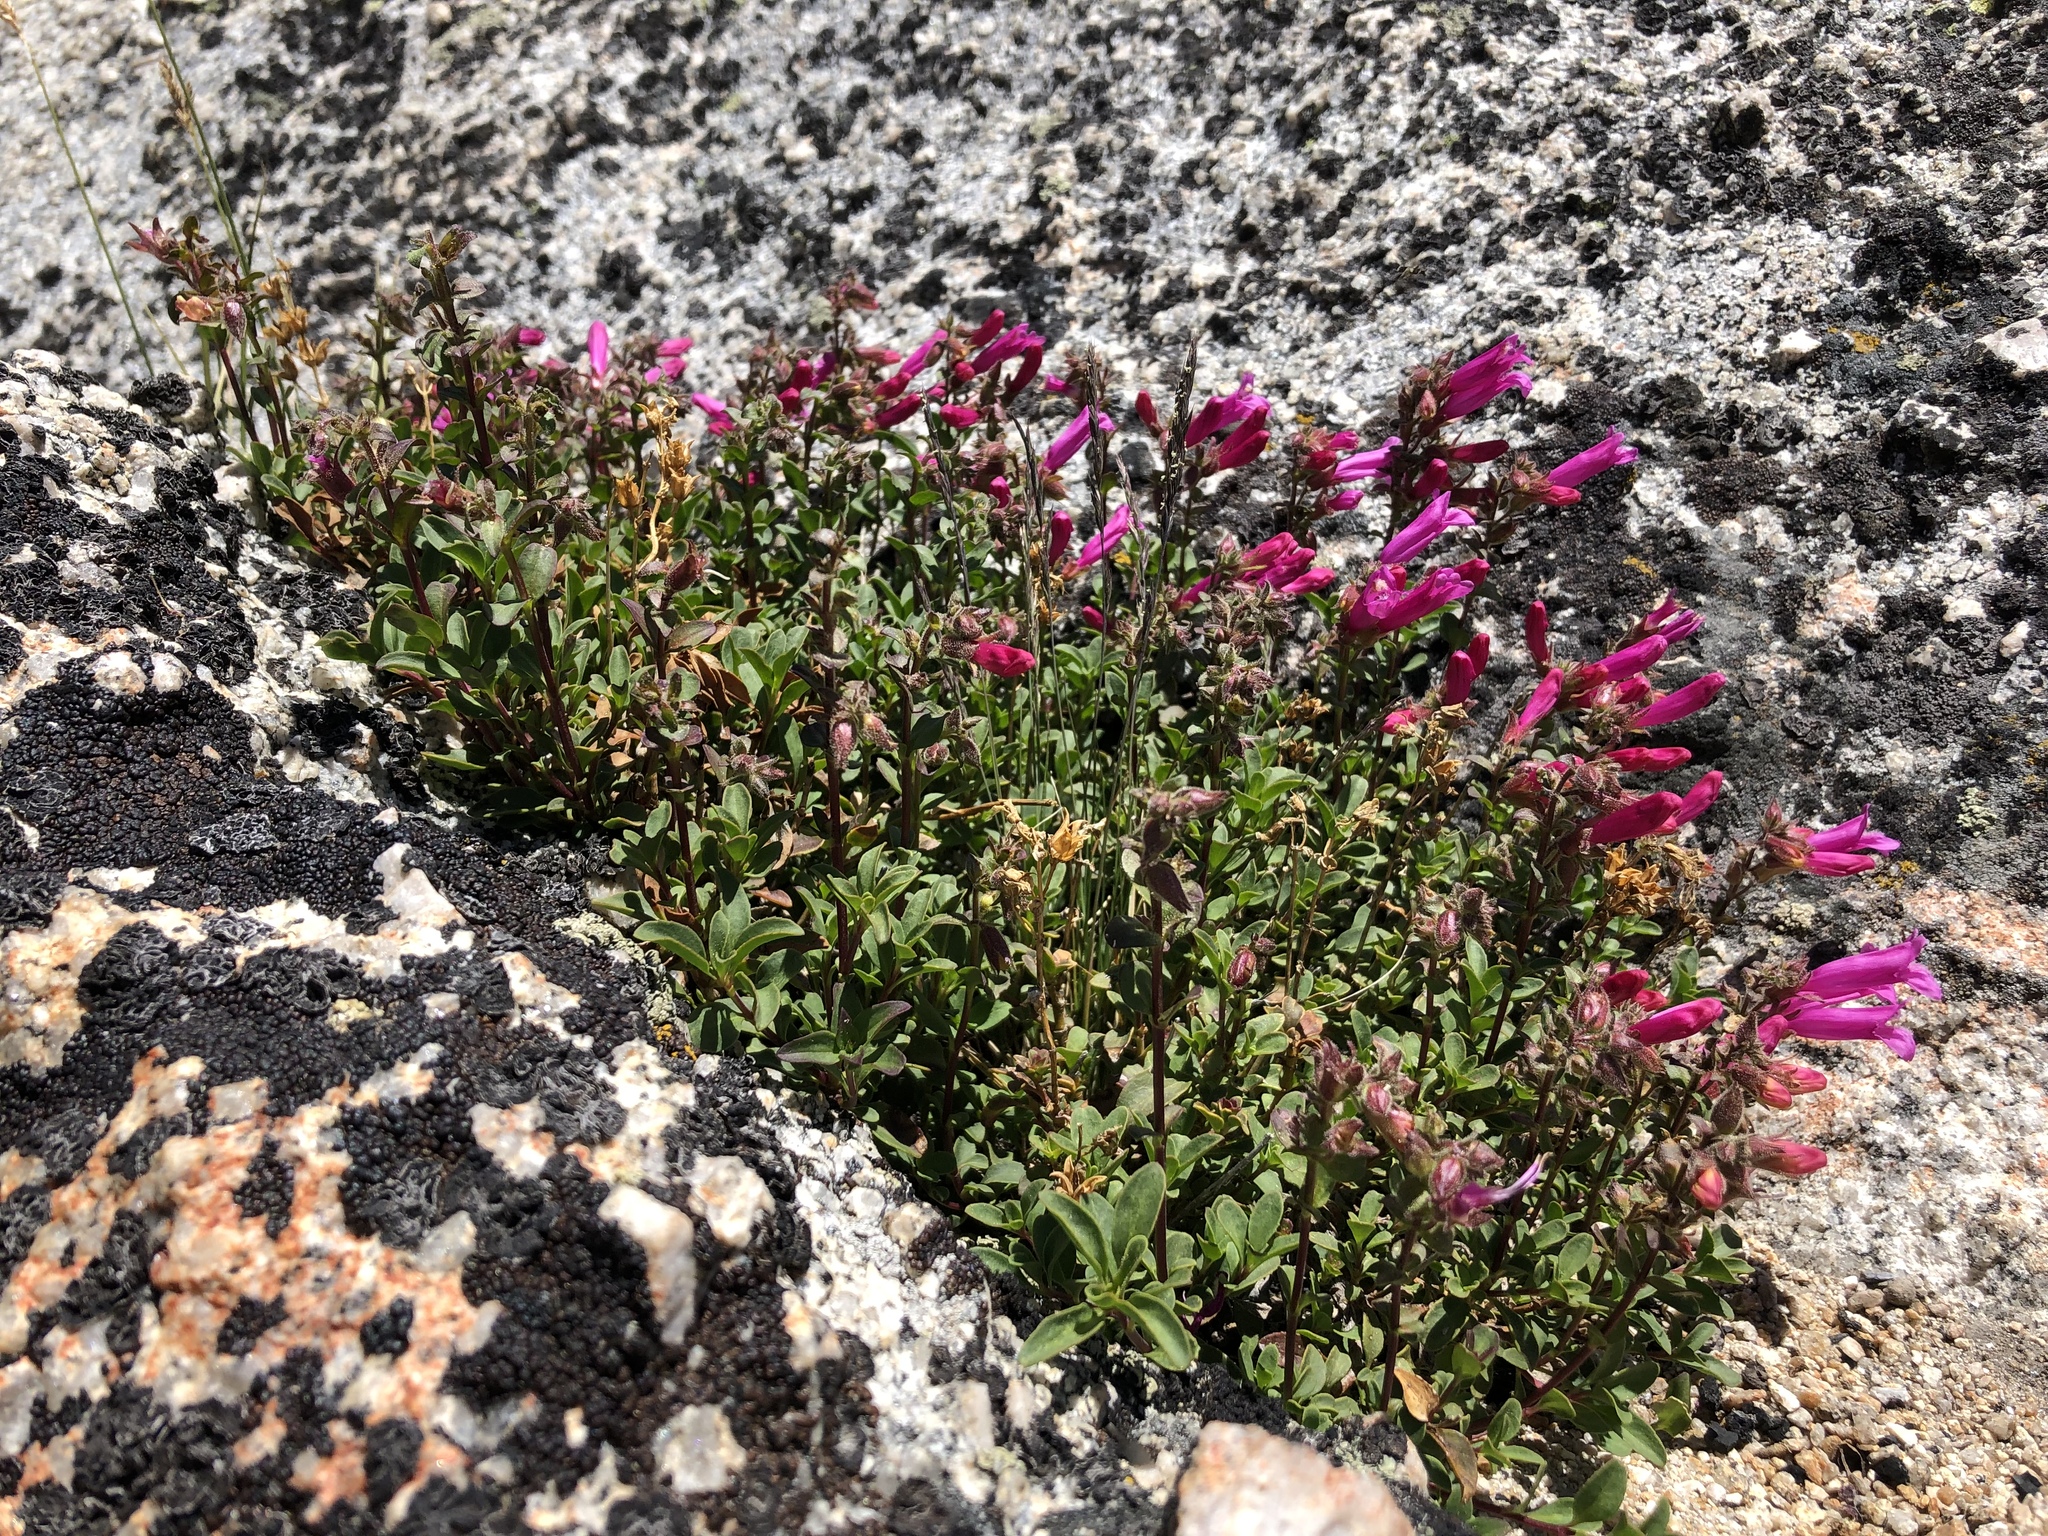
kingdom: Plantae
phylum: Tracheophyta
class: Magnoliopsida
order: Lamiales
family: Plantaginaceae
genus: Penstemon
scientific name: Penstemon newberryi
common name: Mountain-pride
